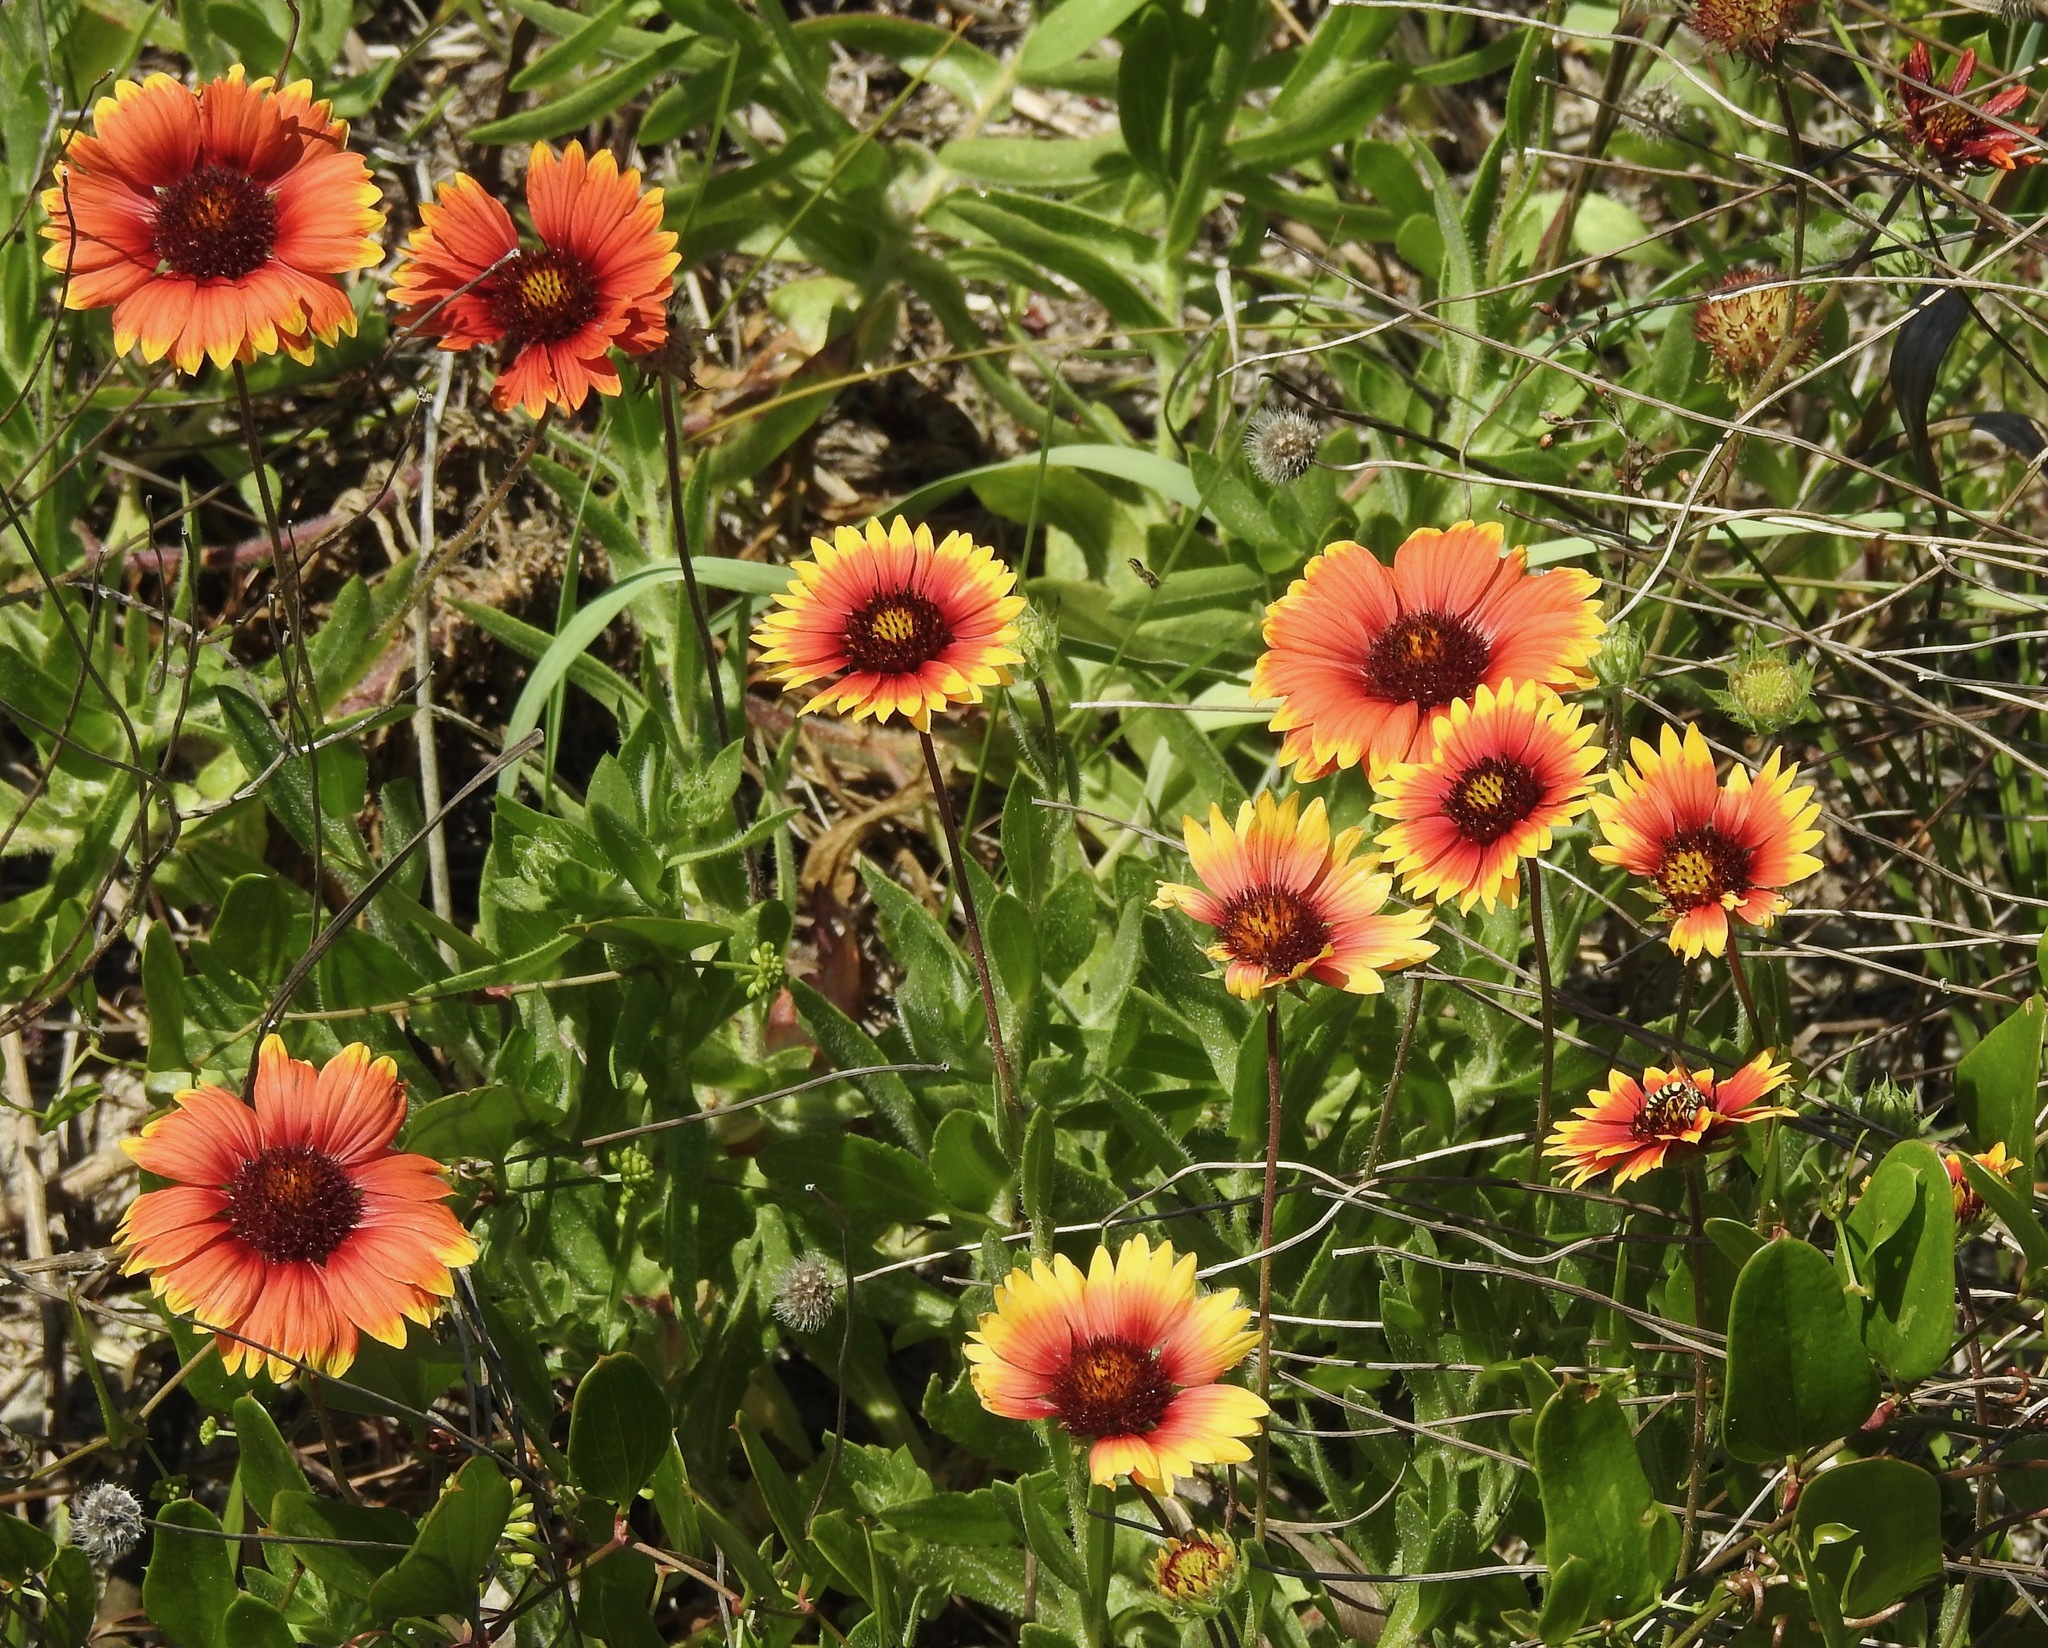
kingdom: Plantae
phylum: Tracheophyta
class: Magnoliopsida
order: Asterales
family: Asteraceae
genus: Gaillardia
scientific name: Gaillardia pulchella
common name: Firewheel
